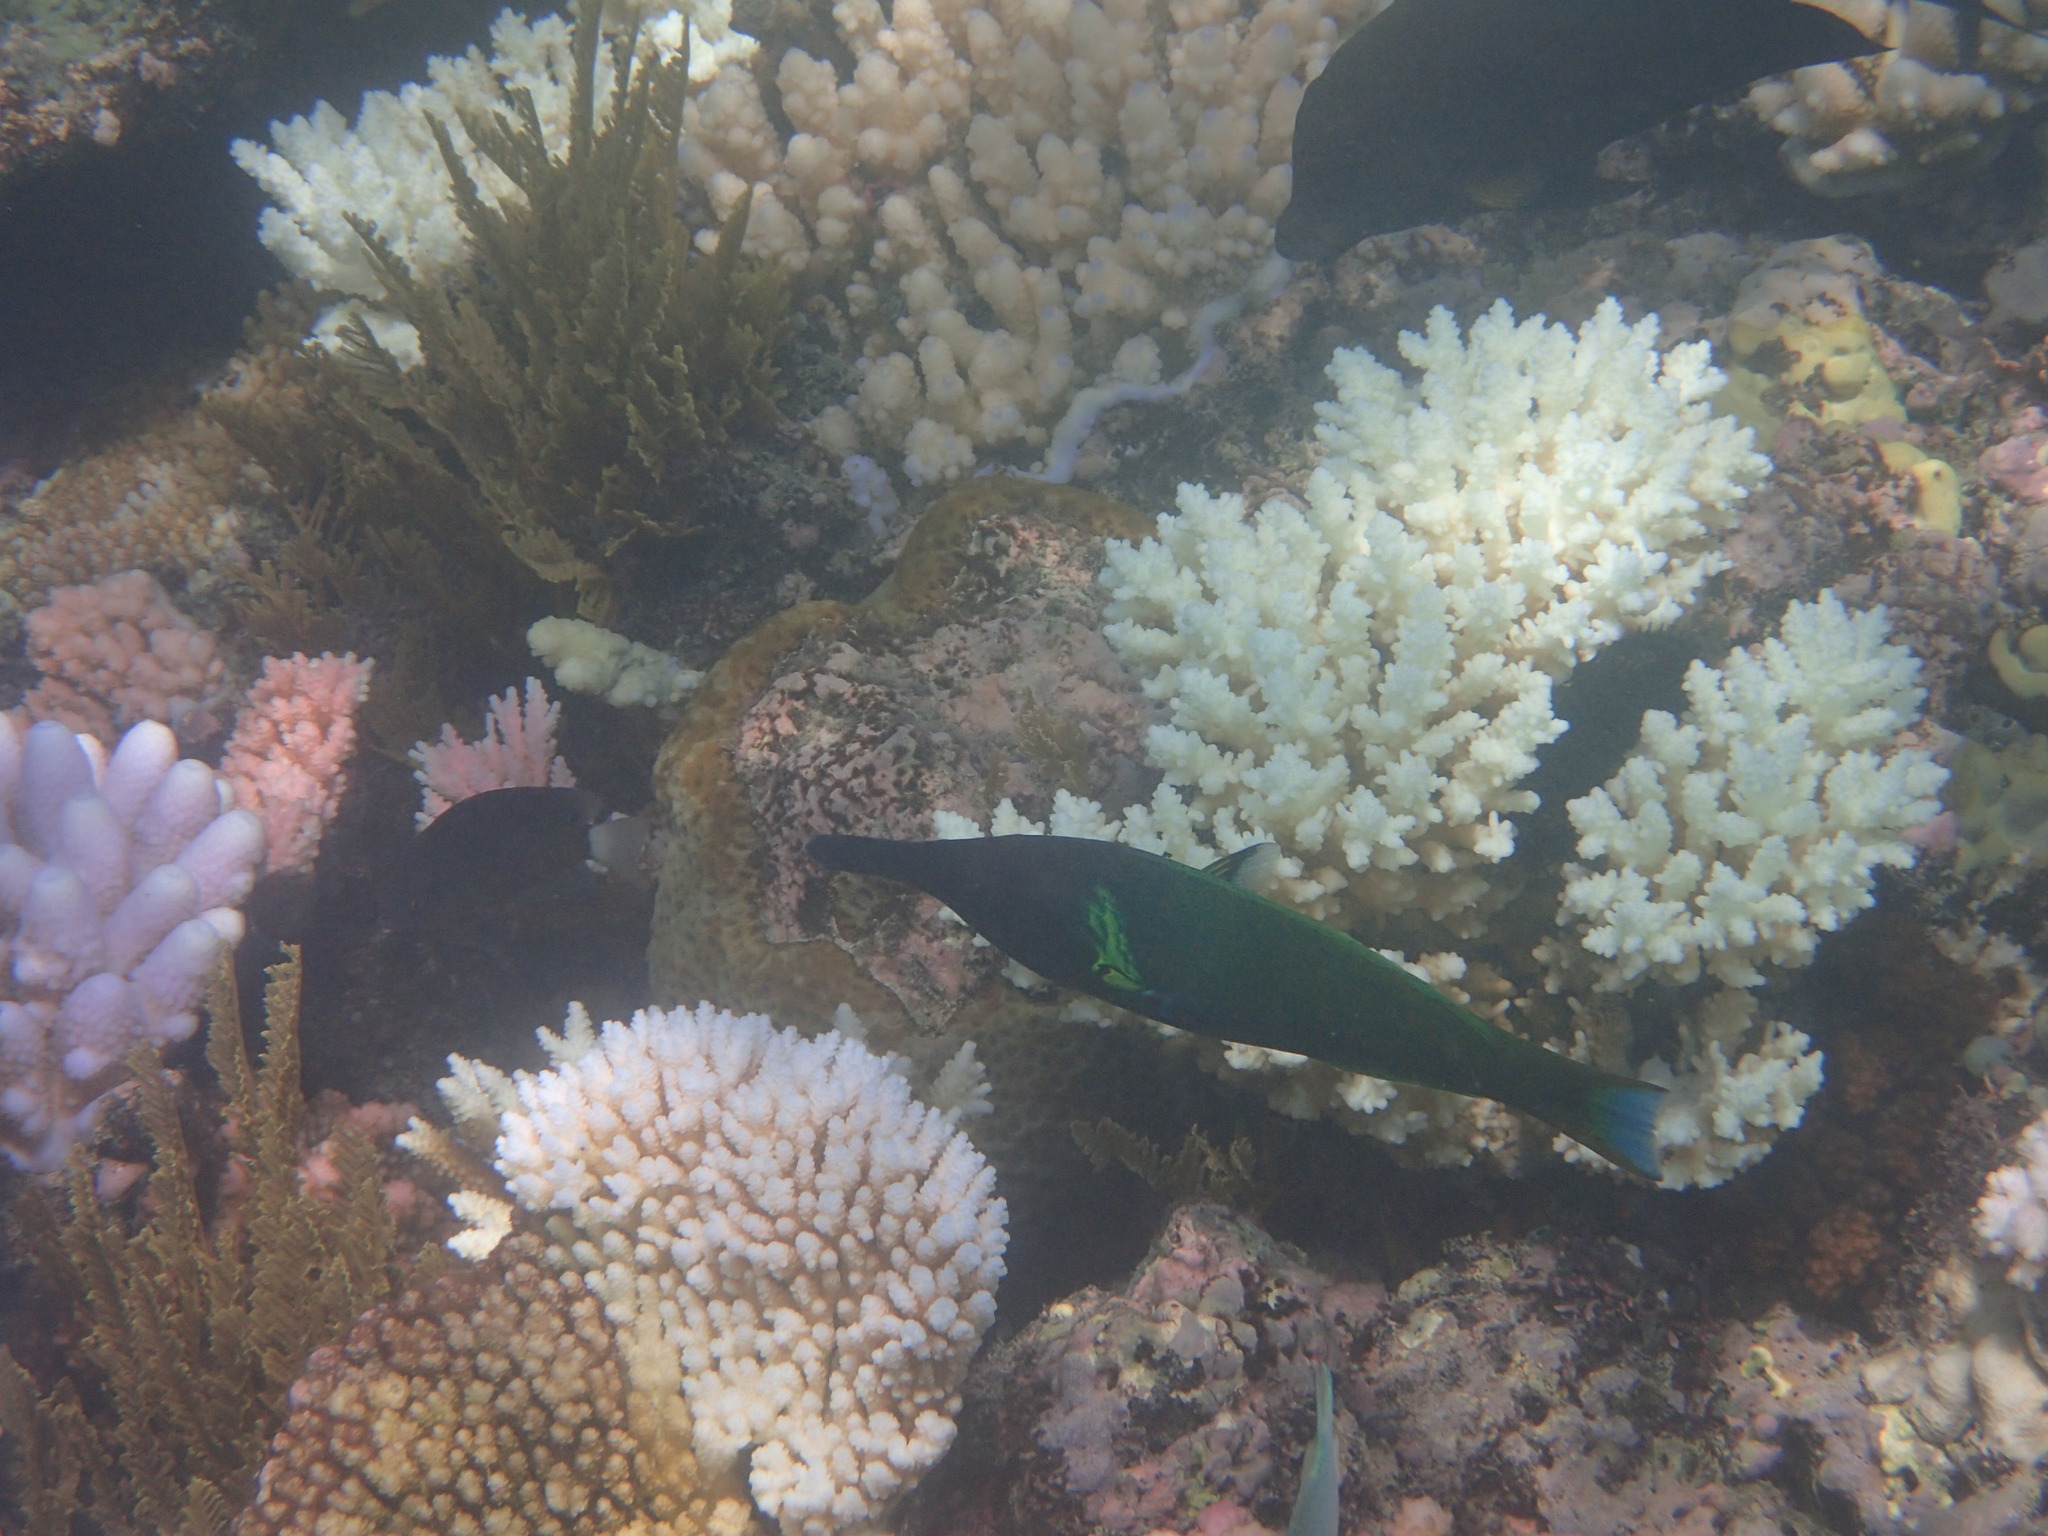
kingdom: Animalia
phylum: Chordata
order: Perciformes
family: Labridae
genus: Gomphosus
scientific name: Gomphosus varius
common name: Bird wrasse
